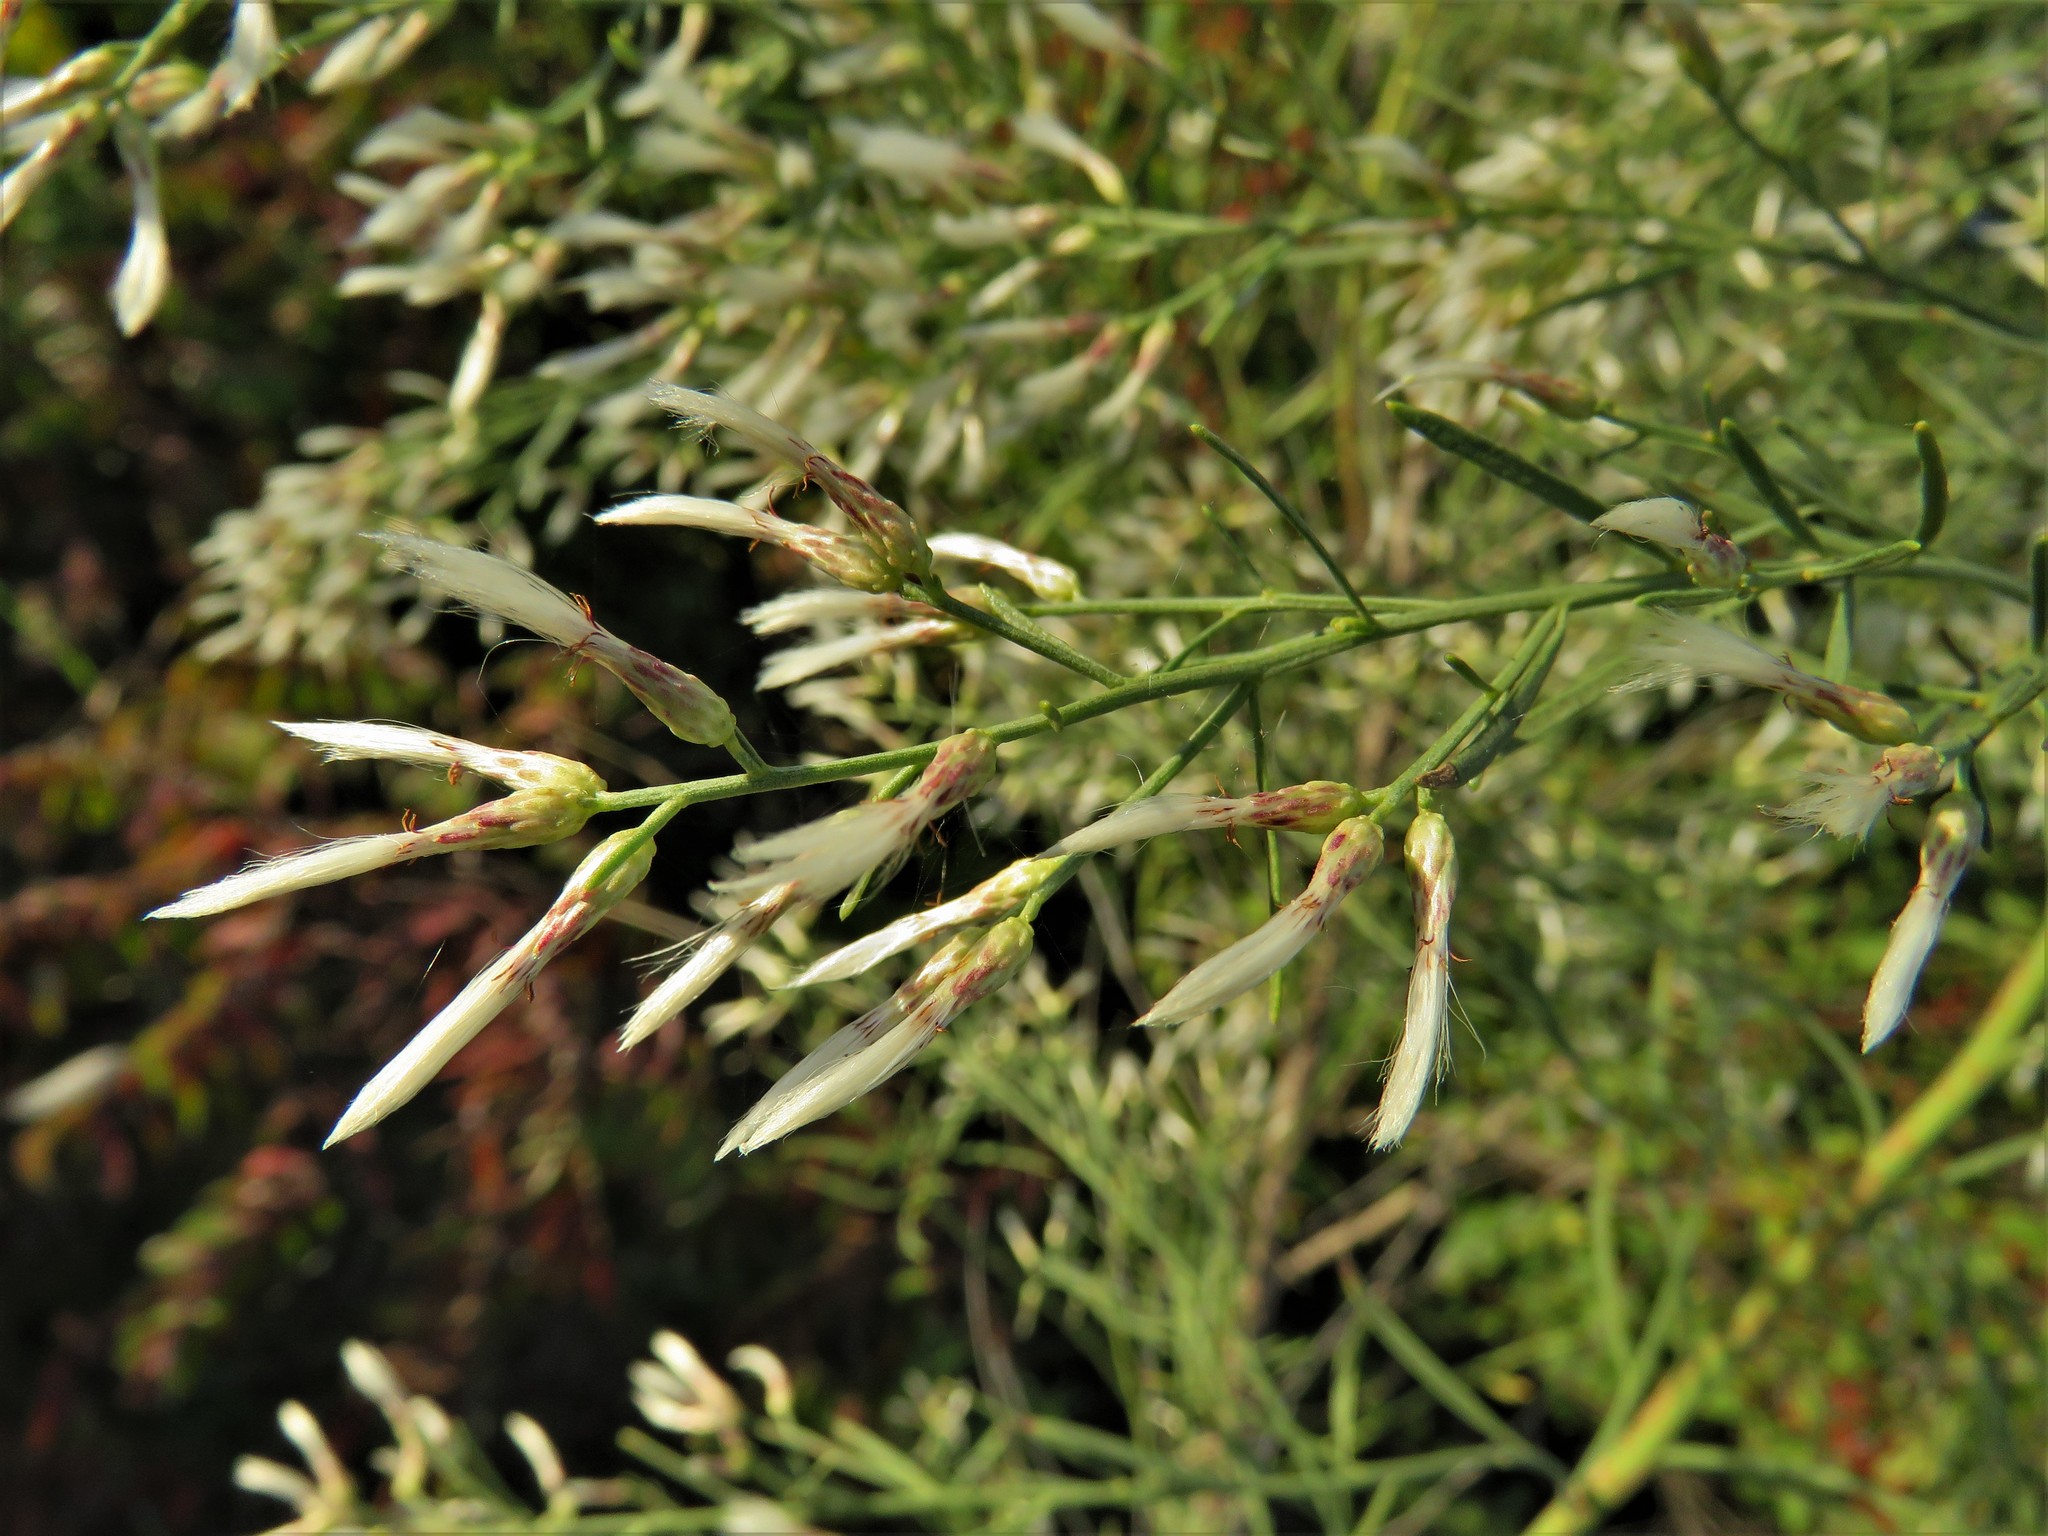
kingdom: Plantae
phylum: Tracheophyta
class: Magnoliopsida
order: Asterales
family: Asteraceae
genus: Baccharis
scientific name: Baccharis neglecta
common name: Roosevelt-weed
